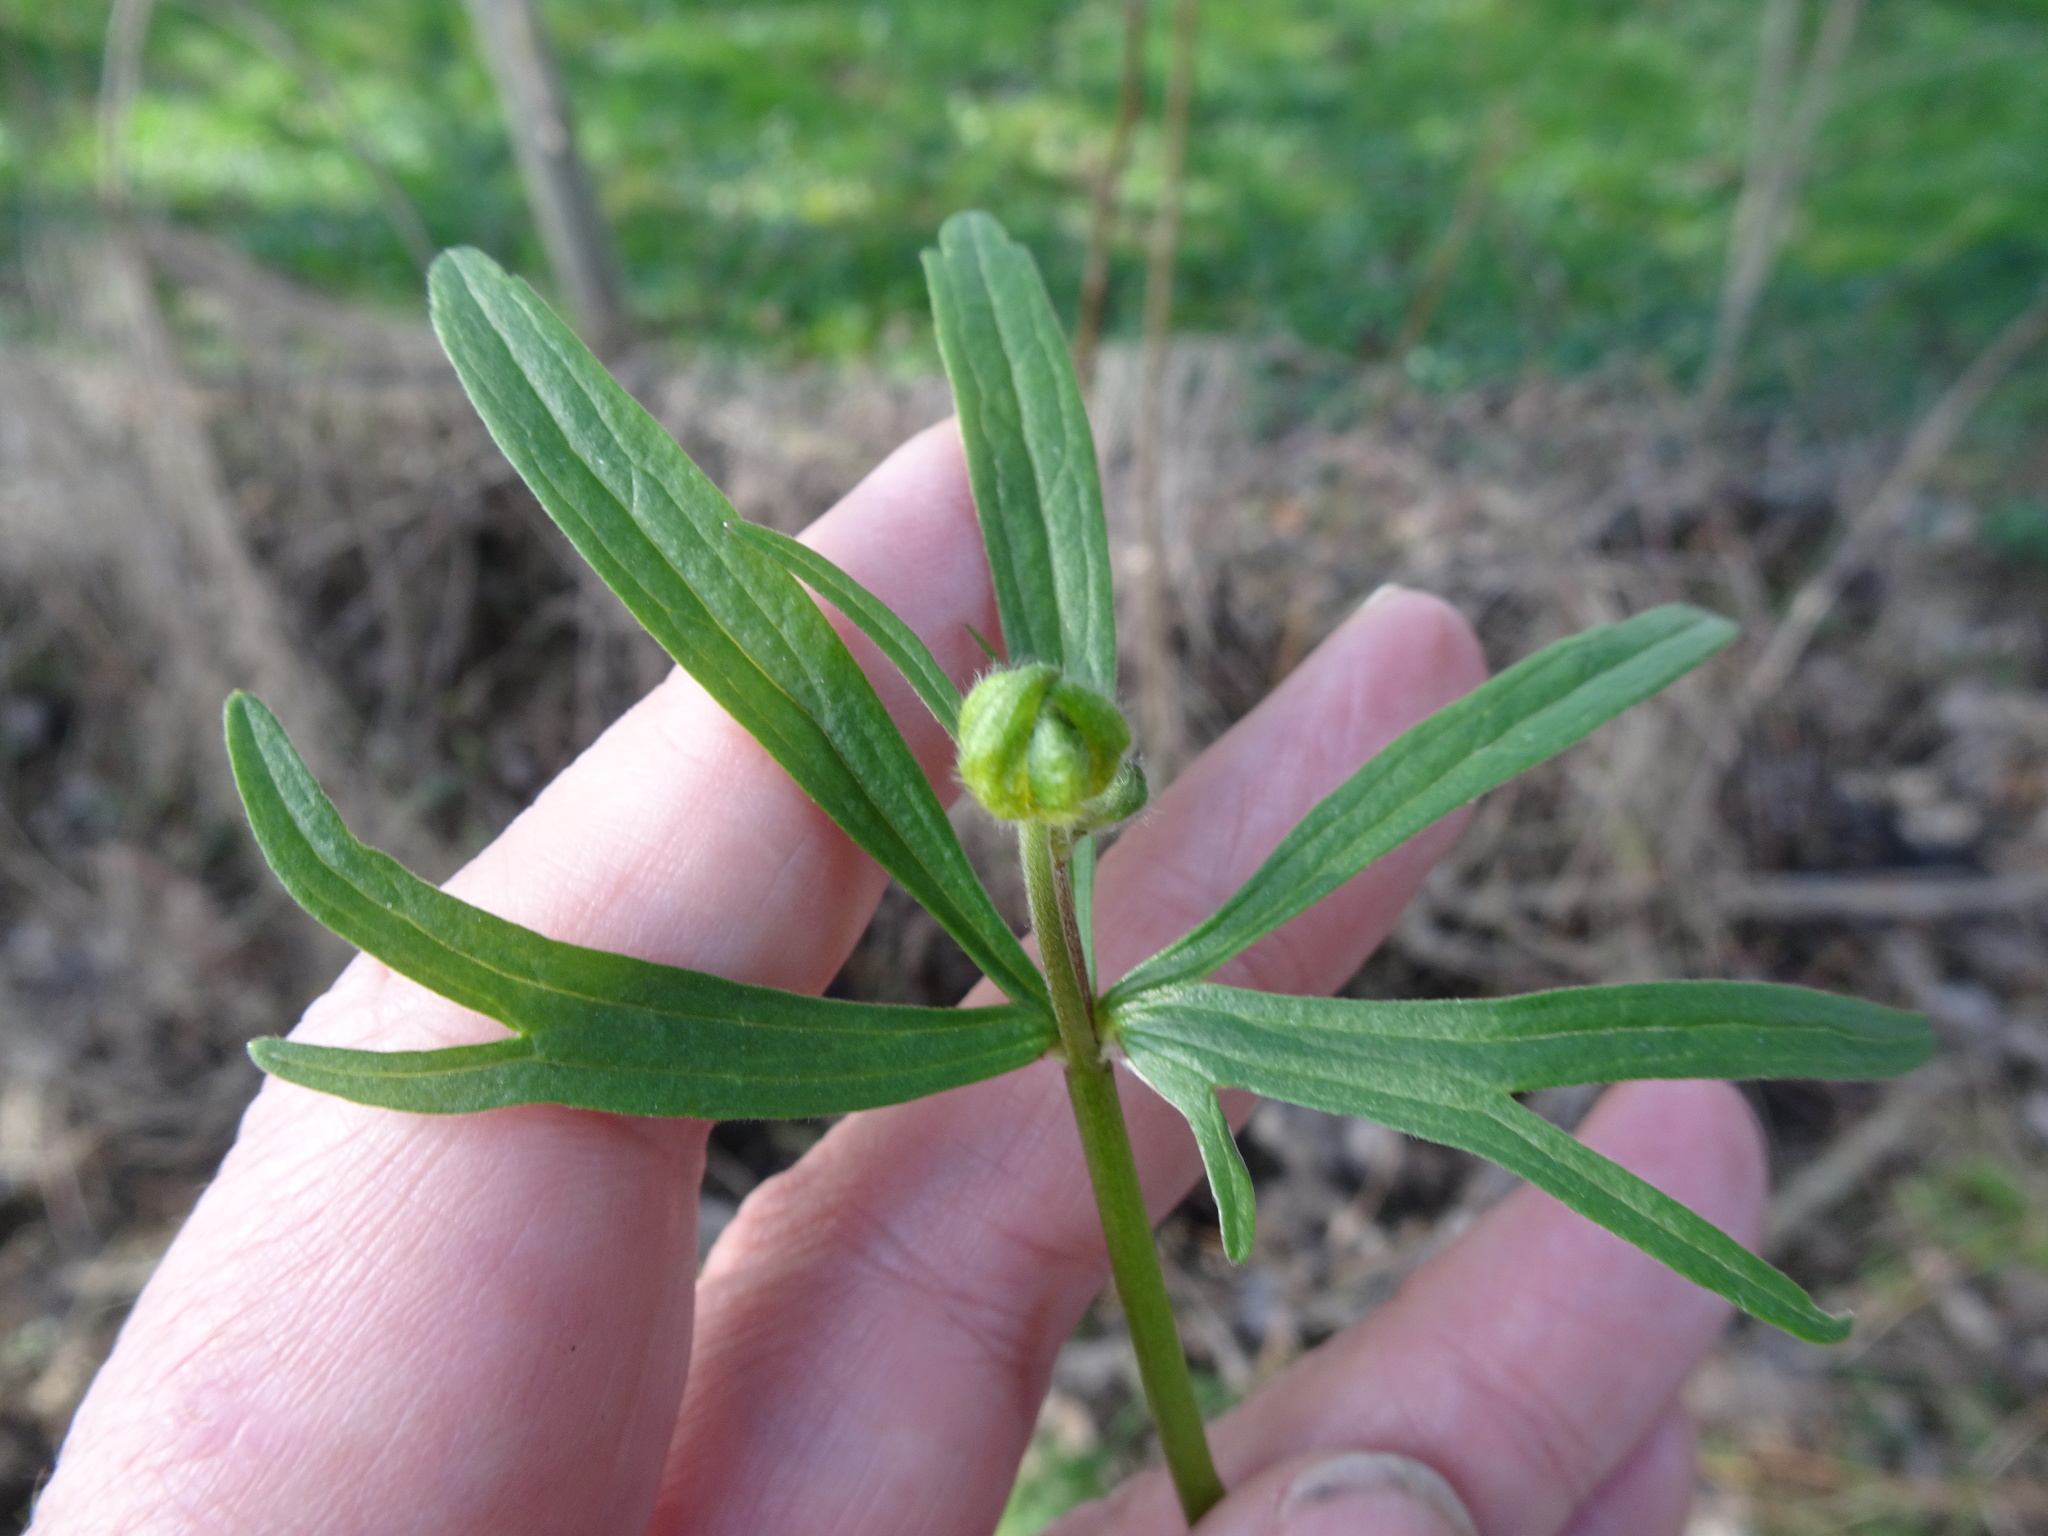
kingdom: Plantae
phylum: Tracheophyta
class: Magnoliopsida
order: Ranunculales
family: Ranunculaceae
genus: Ranunculus
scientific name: Ranunculus auricomus
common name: Goldilocks buttercup
